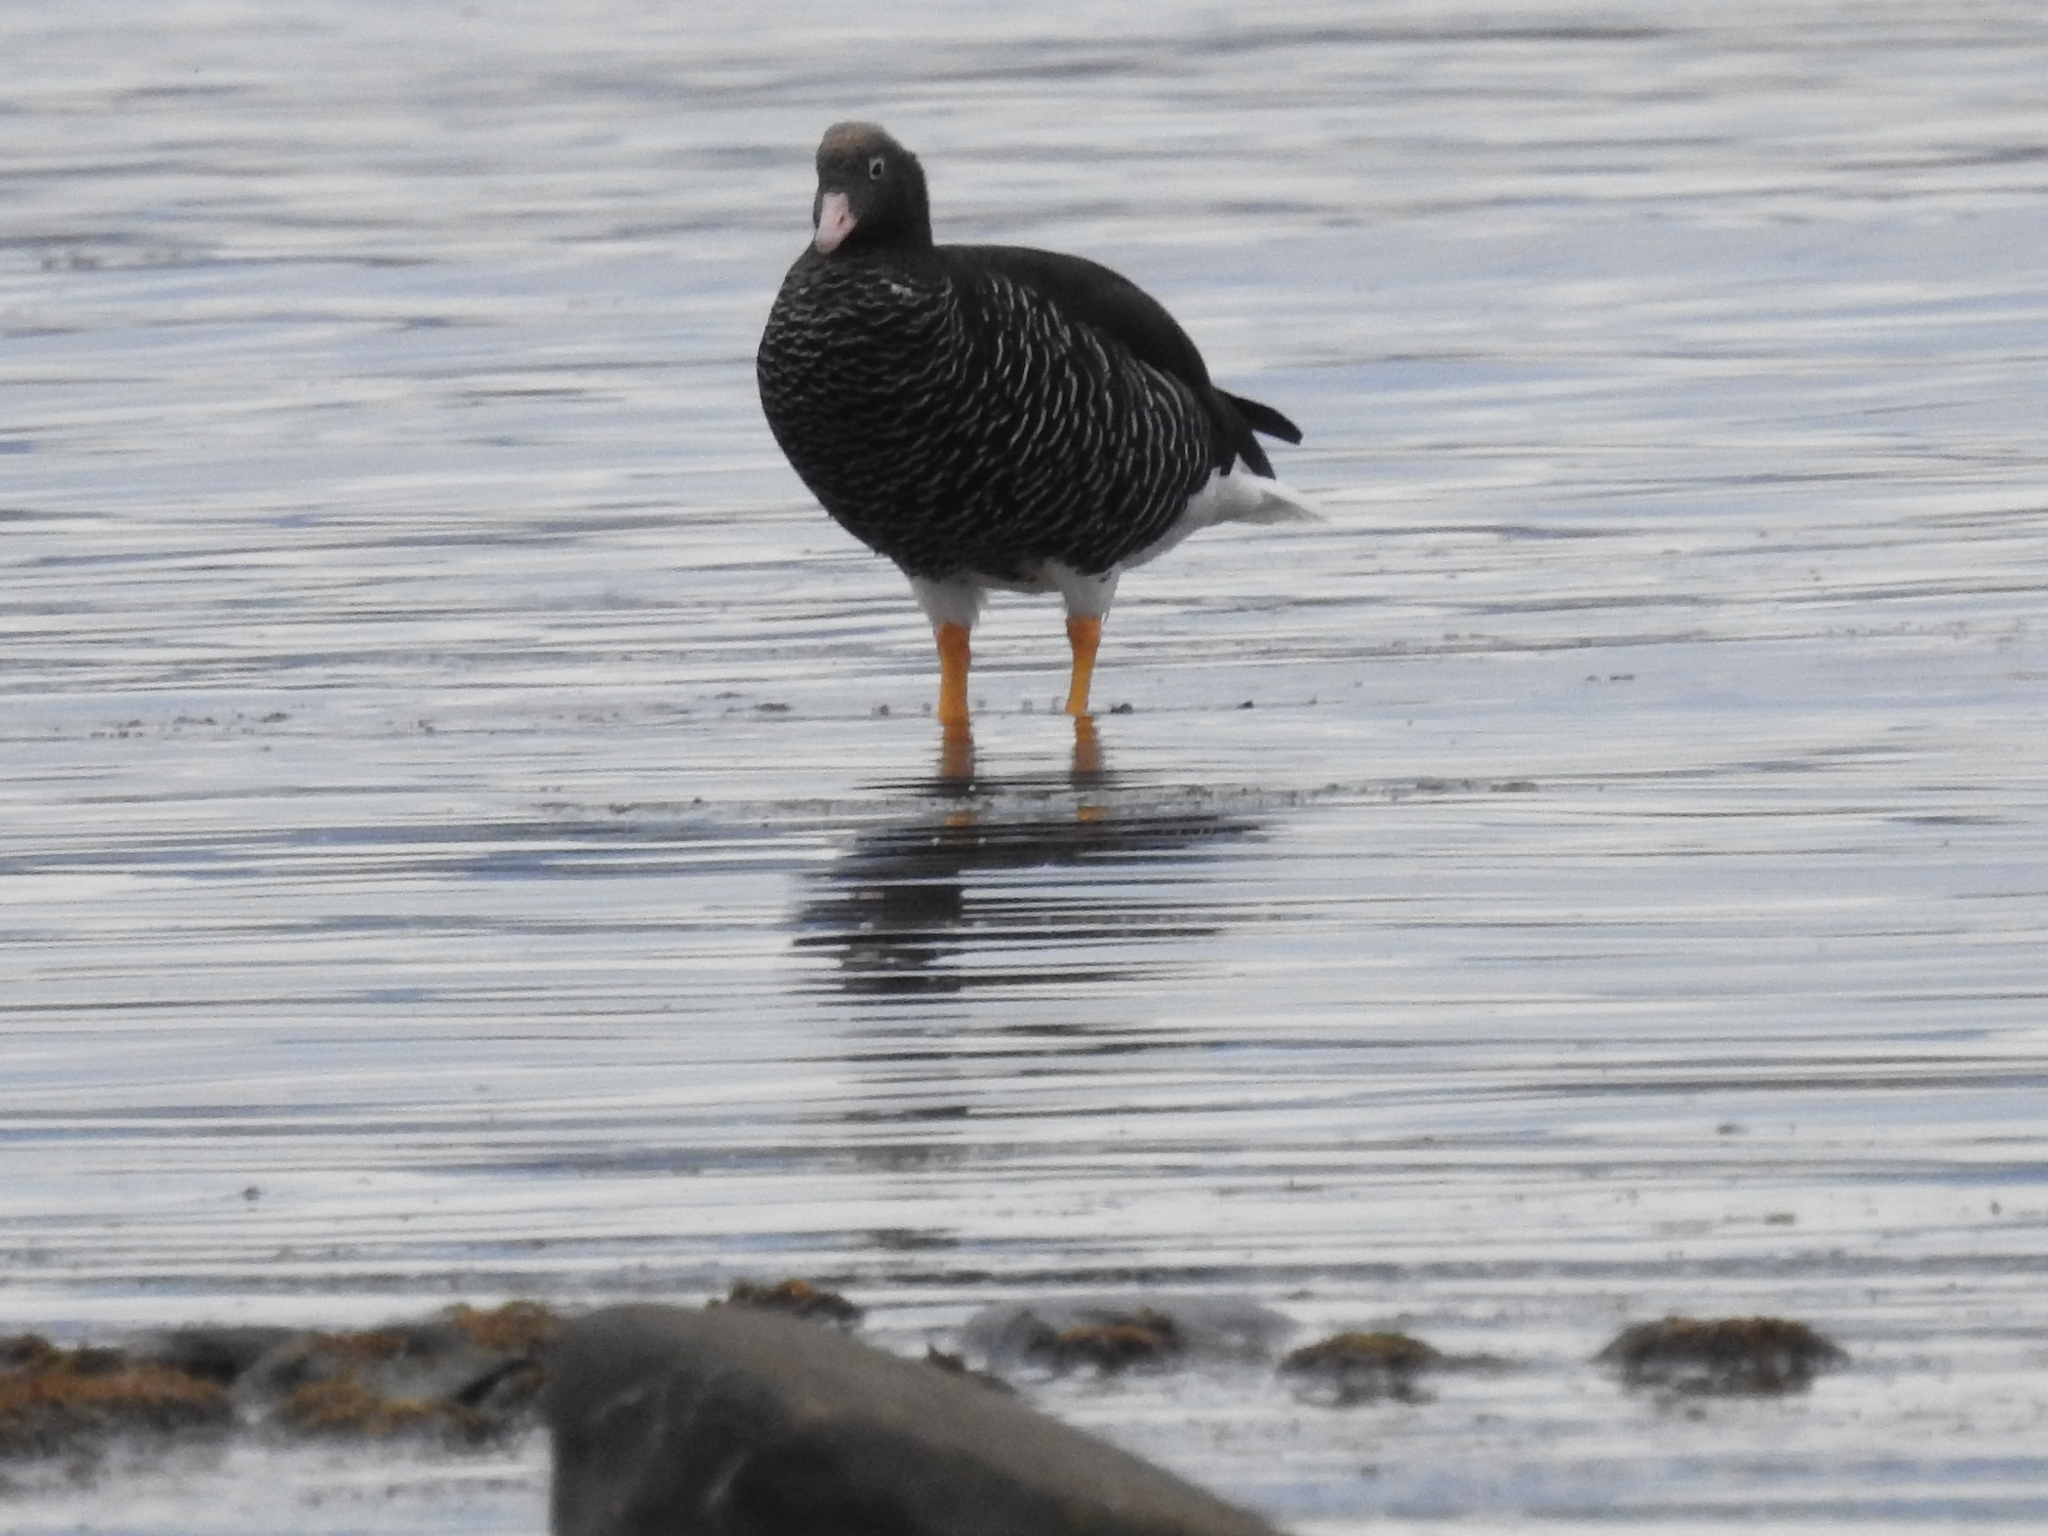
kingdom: Animalia
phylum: Chordata
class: Aves
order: Anseriformes
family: Anatidae
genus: Chloephaga
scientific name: Chloephaga hybrida
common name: Kelp goose
